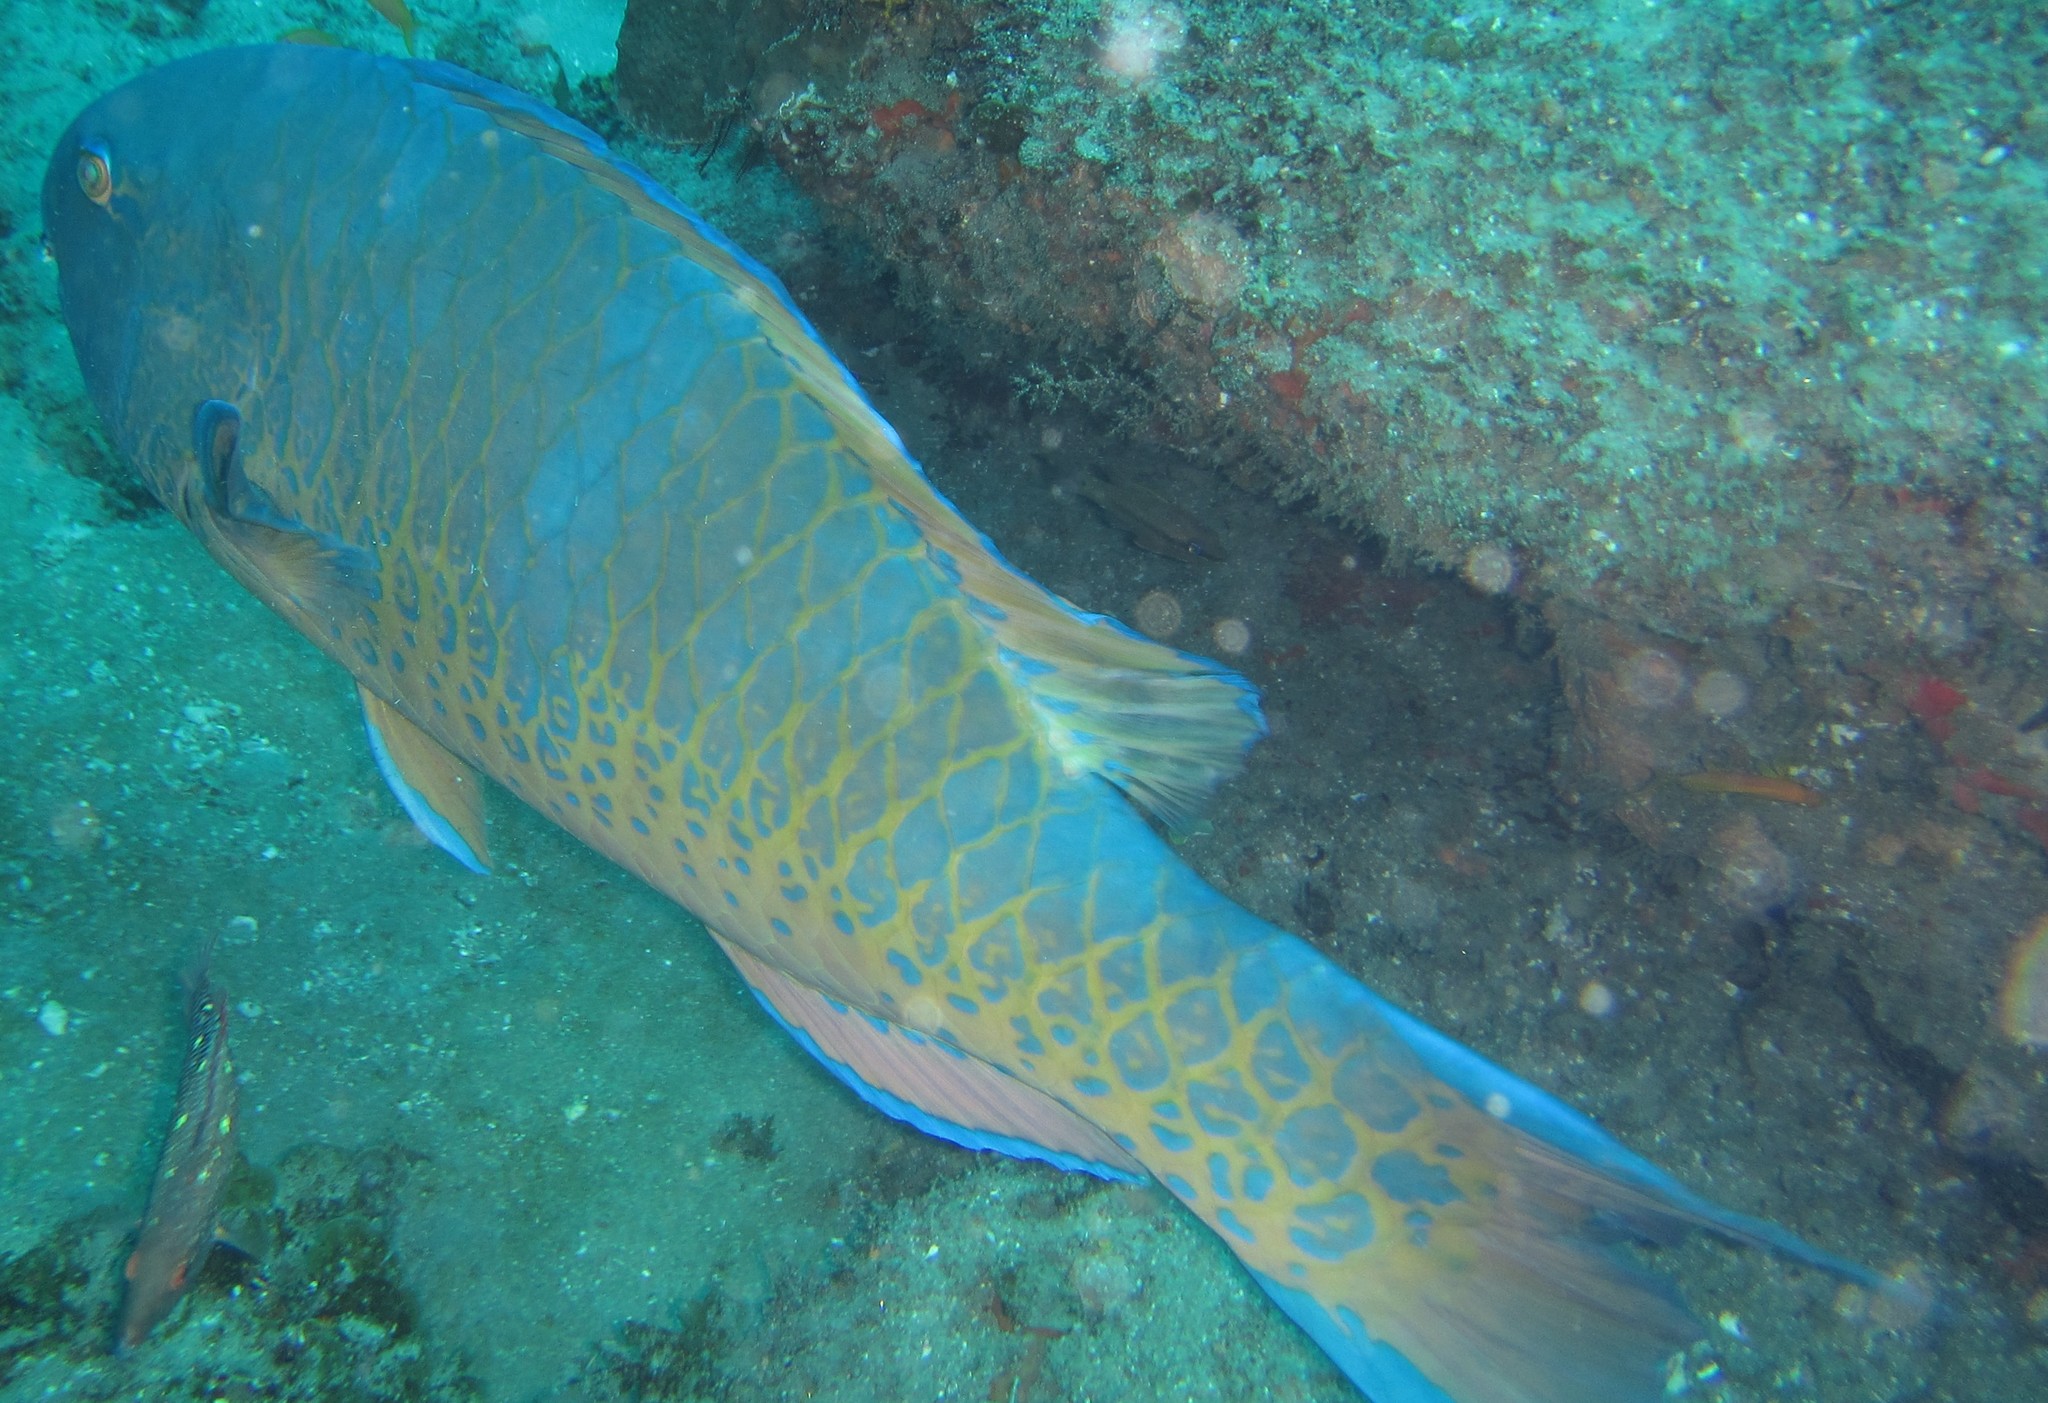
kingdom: Animalia
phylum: Chordata
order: Perciformes
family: Scaridae
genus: Scarus
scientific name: Scarus ghobban
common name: Blue-barred parrotfish
